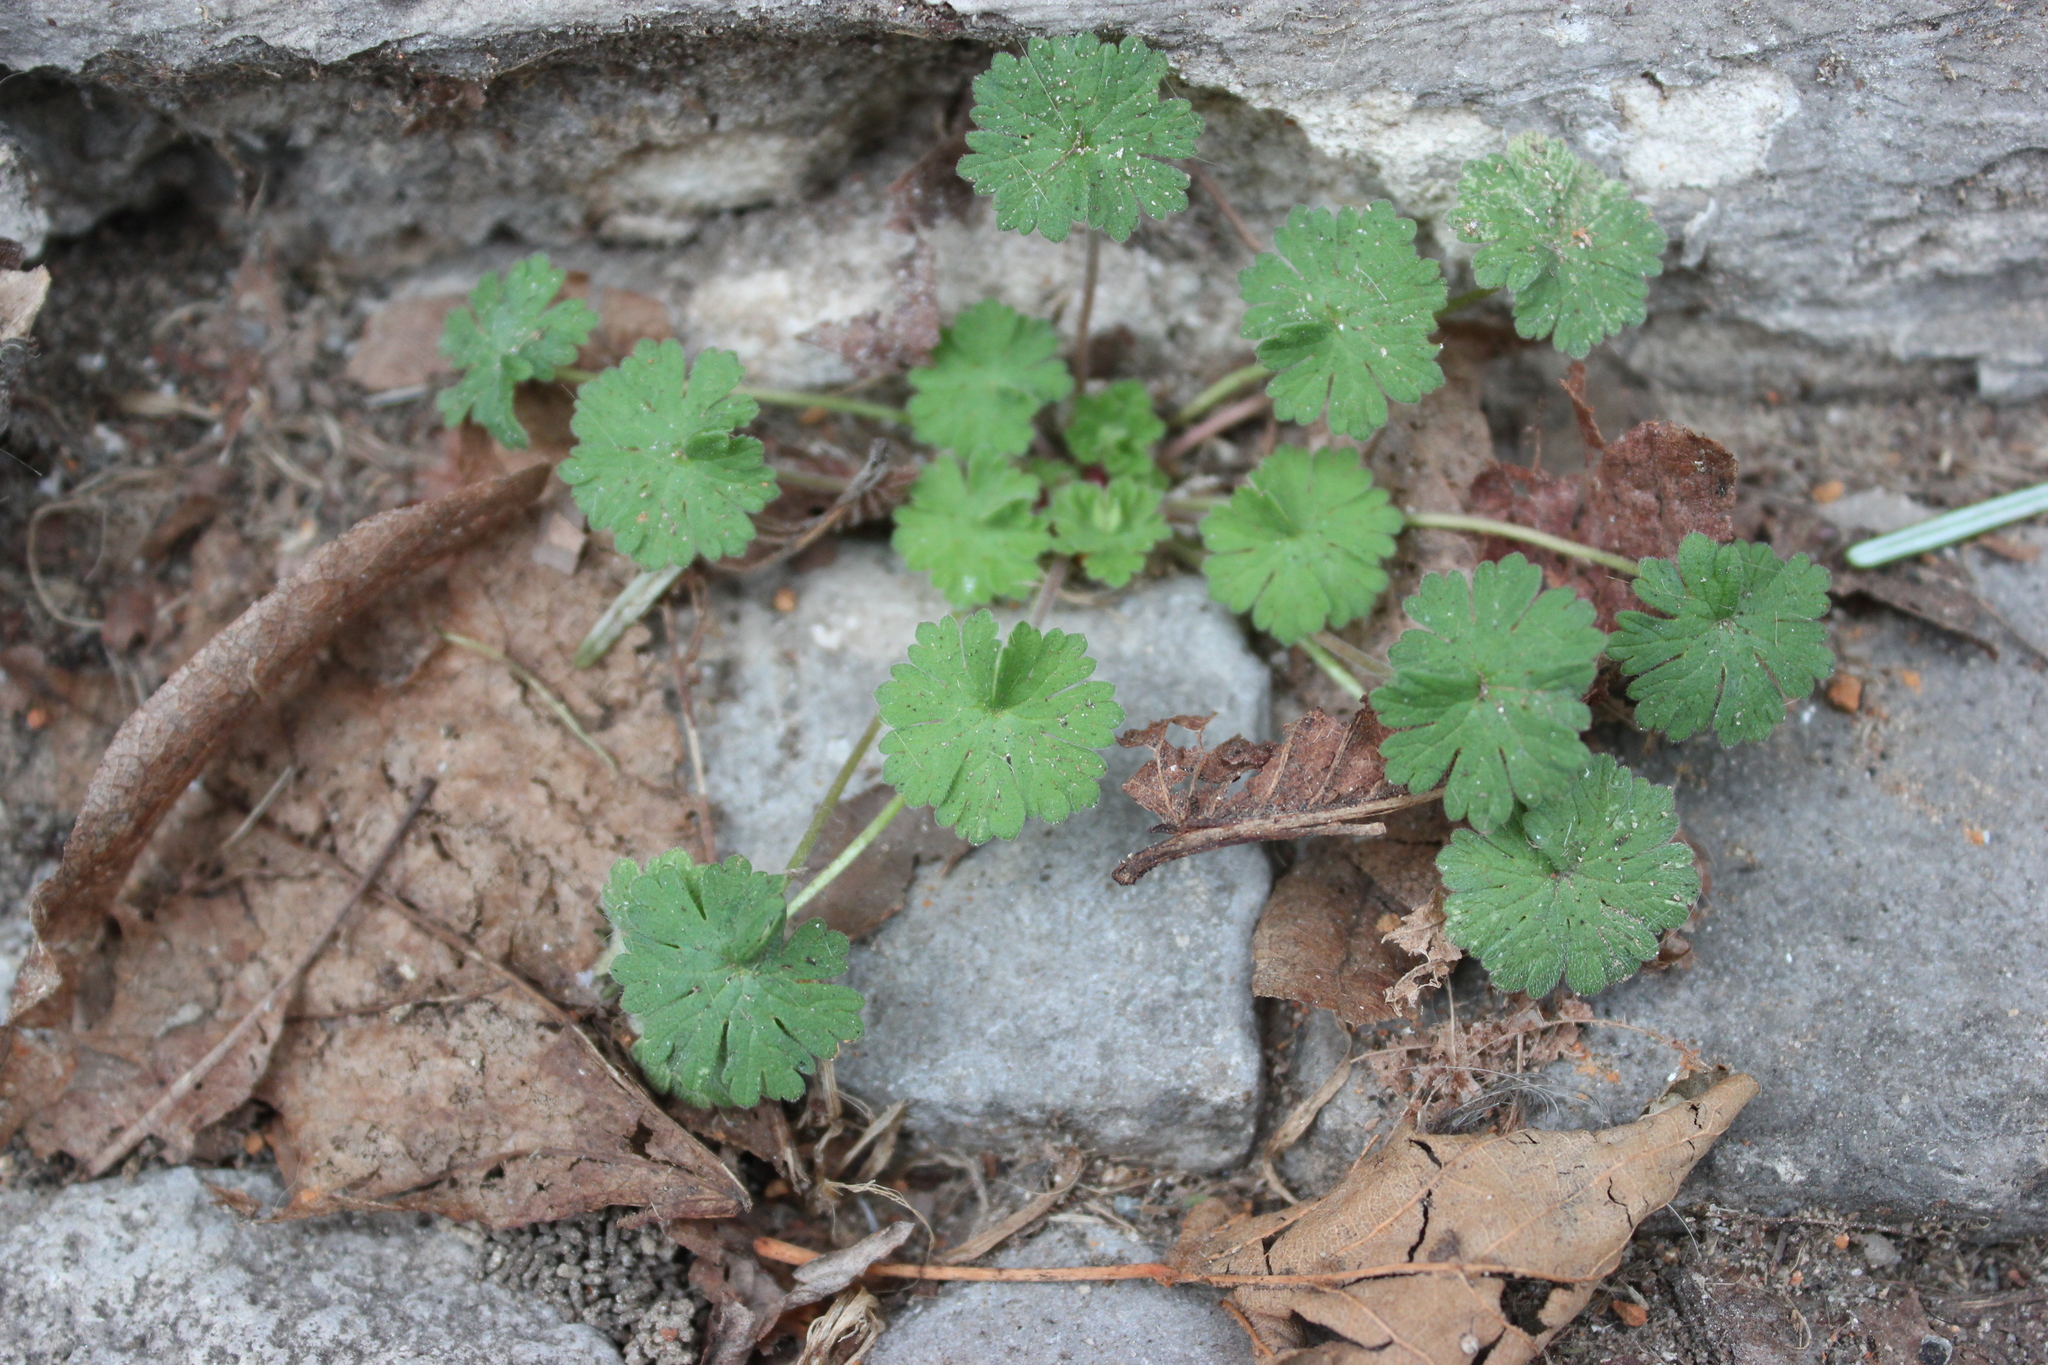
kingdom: Plantae
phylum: Tracheophyta
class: Magnoliopsida
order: Geraniales
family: Geraniaceae
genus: Geranium
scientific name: Geranium molle
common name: Dove's-foot crane's-bill
